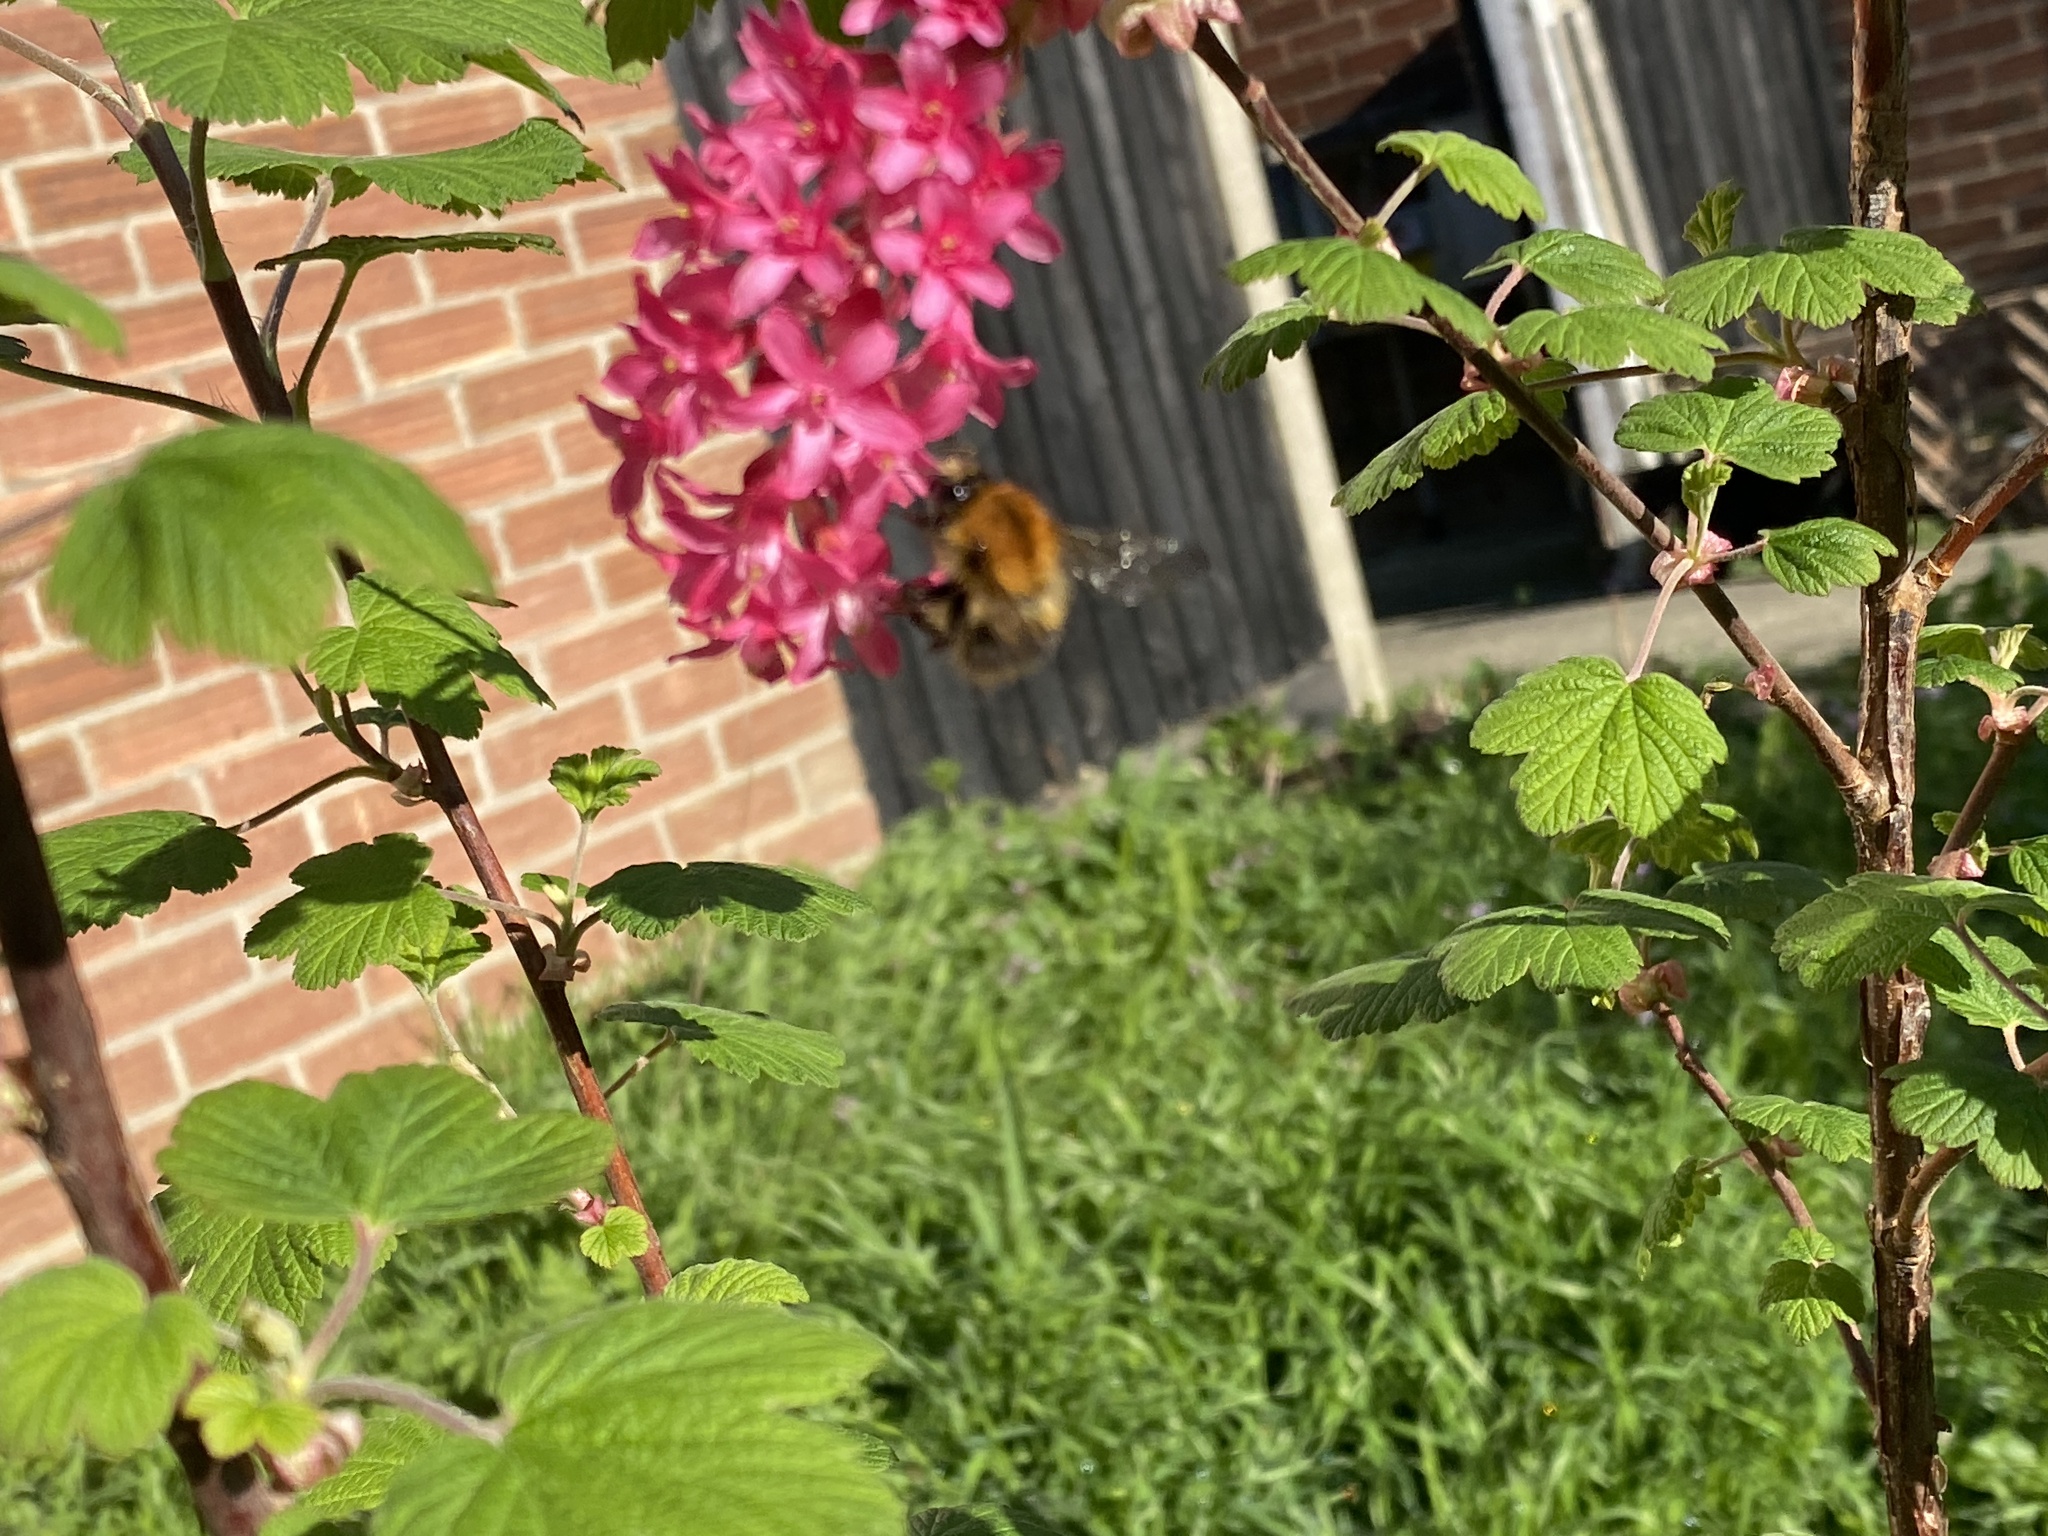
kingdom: Animalia
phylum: Arthropoda
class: Insecta
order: Hymenoptera
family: Apidae
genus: Bombus
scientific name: Bombus pascuorum
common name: Common carder bee
